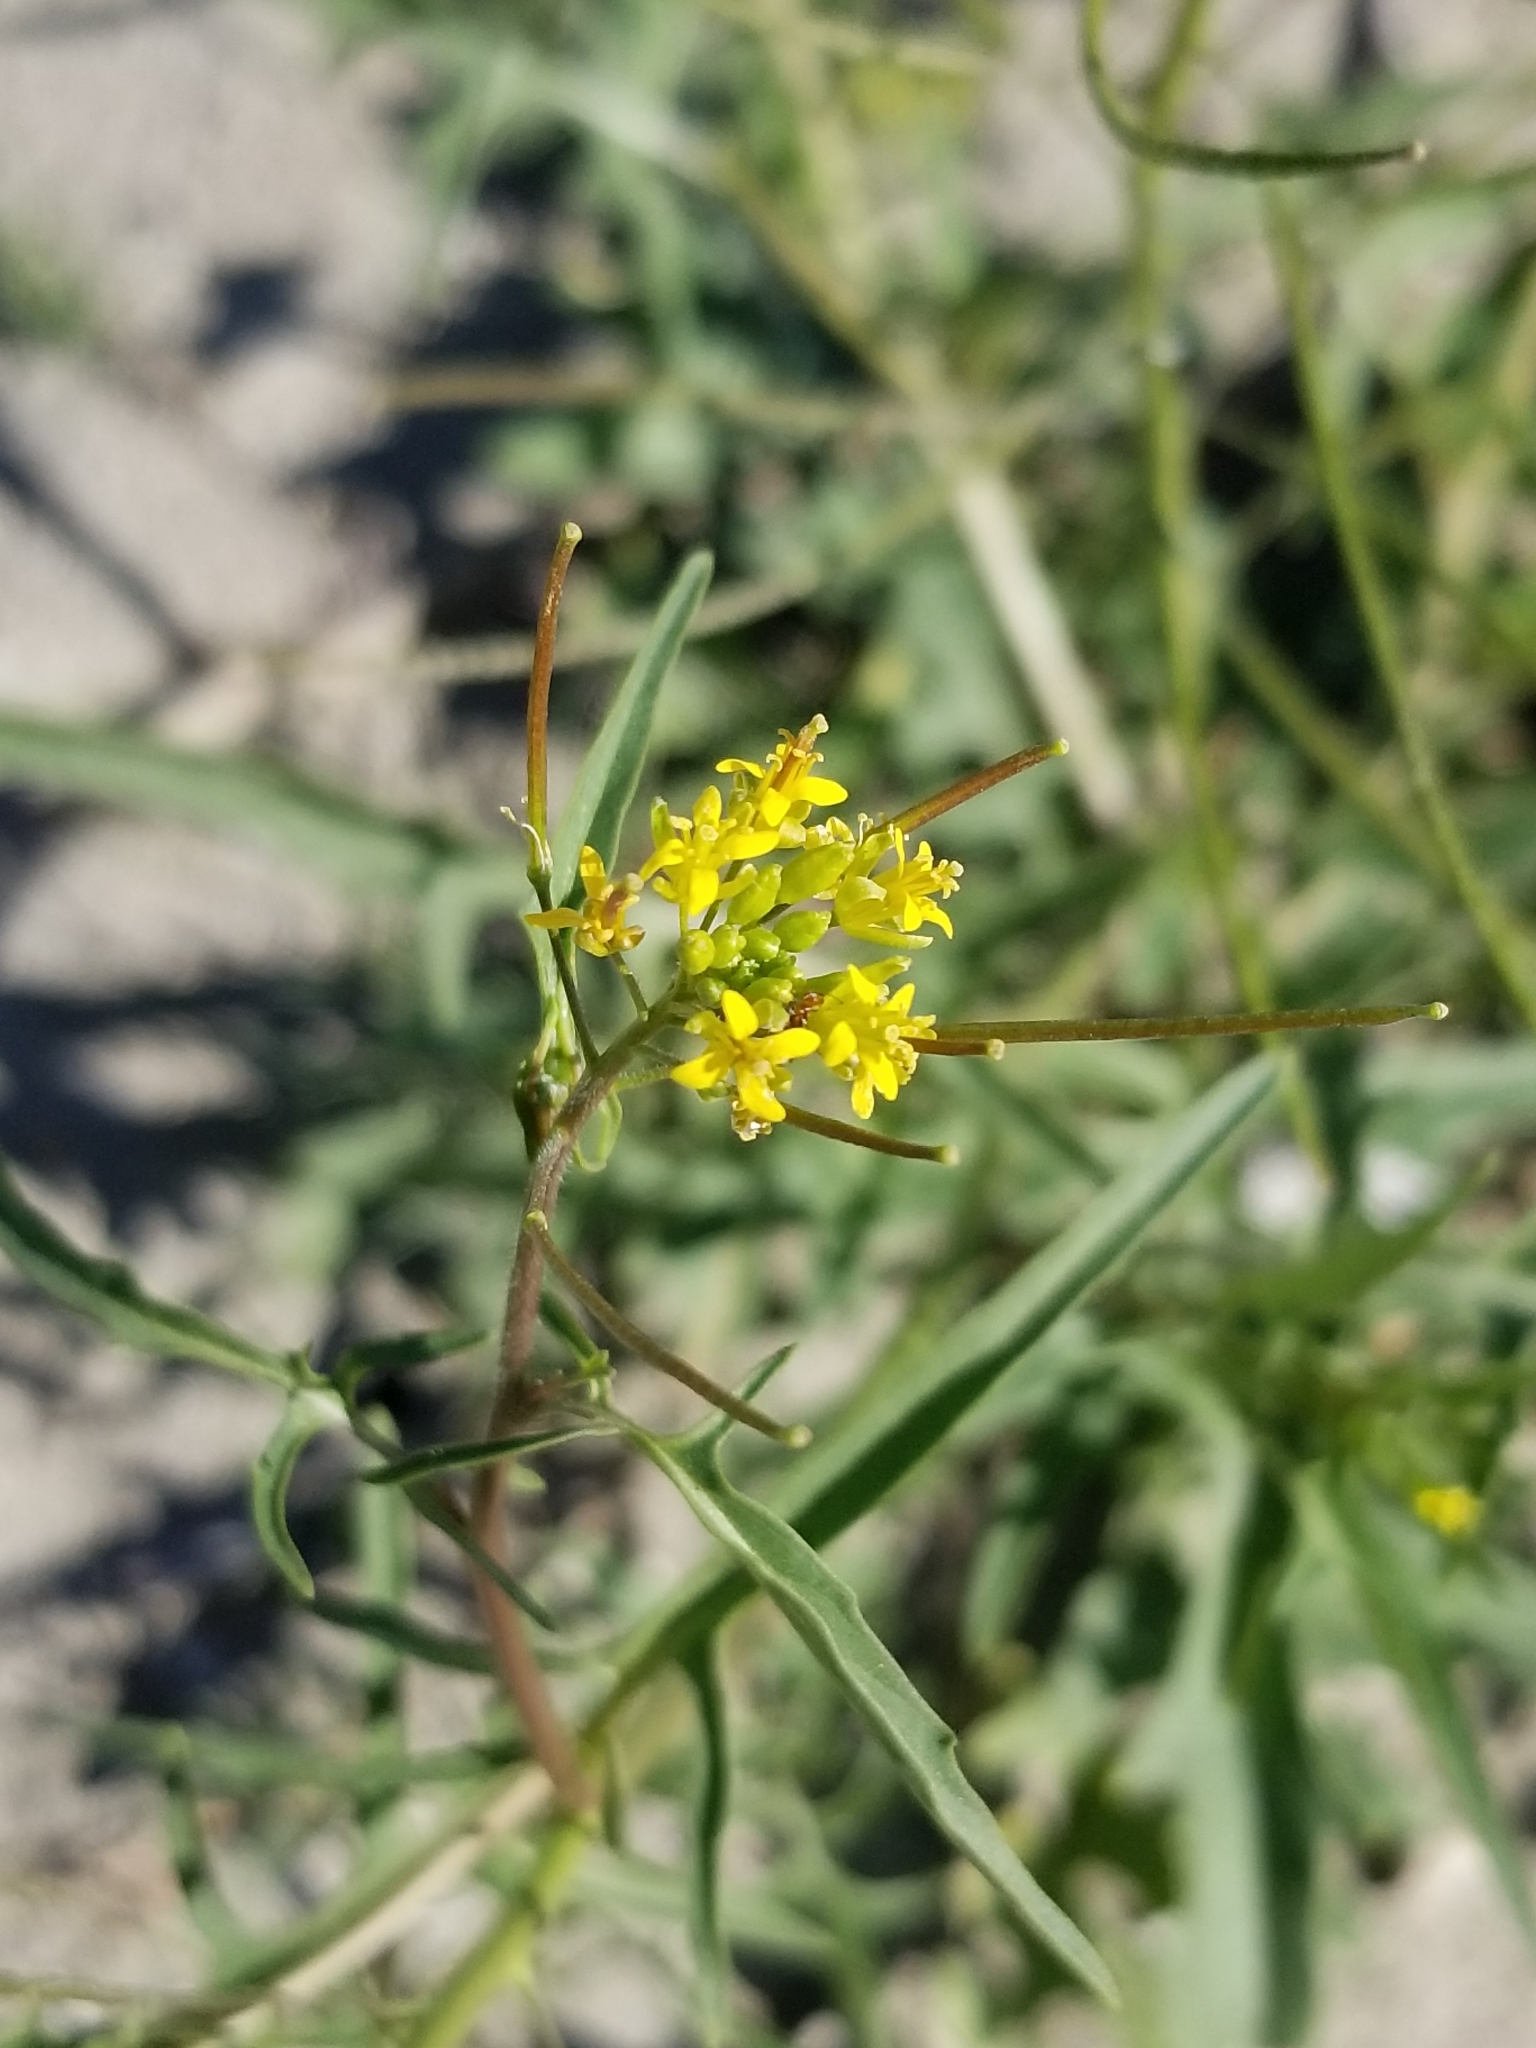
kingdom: Plantae
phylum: Tracheophyta
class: Magnoliopsida
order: Brassicales
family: Brassicaceae
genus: Sisymbrium
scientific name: Sisymbrium irio
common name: London rocket
